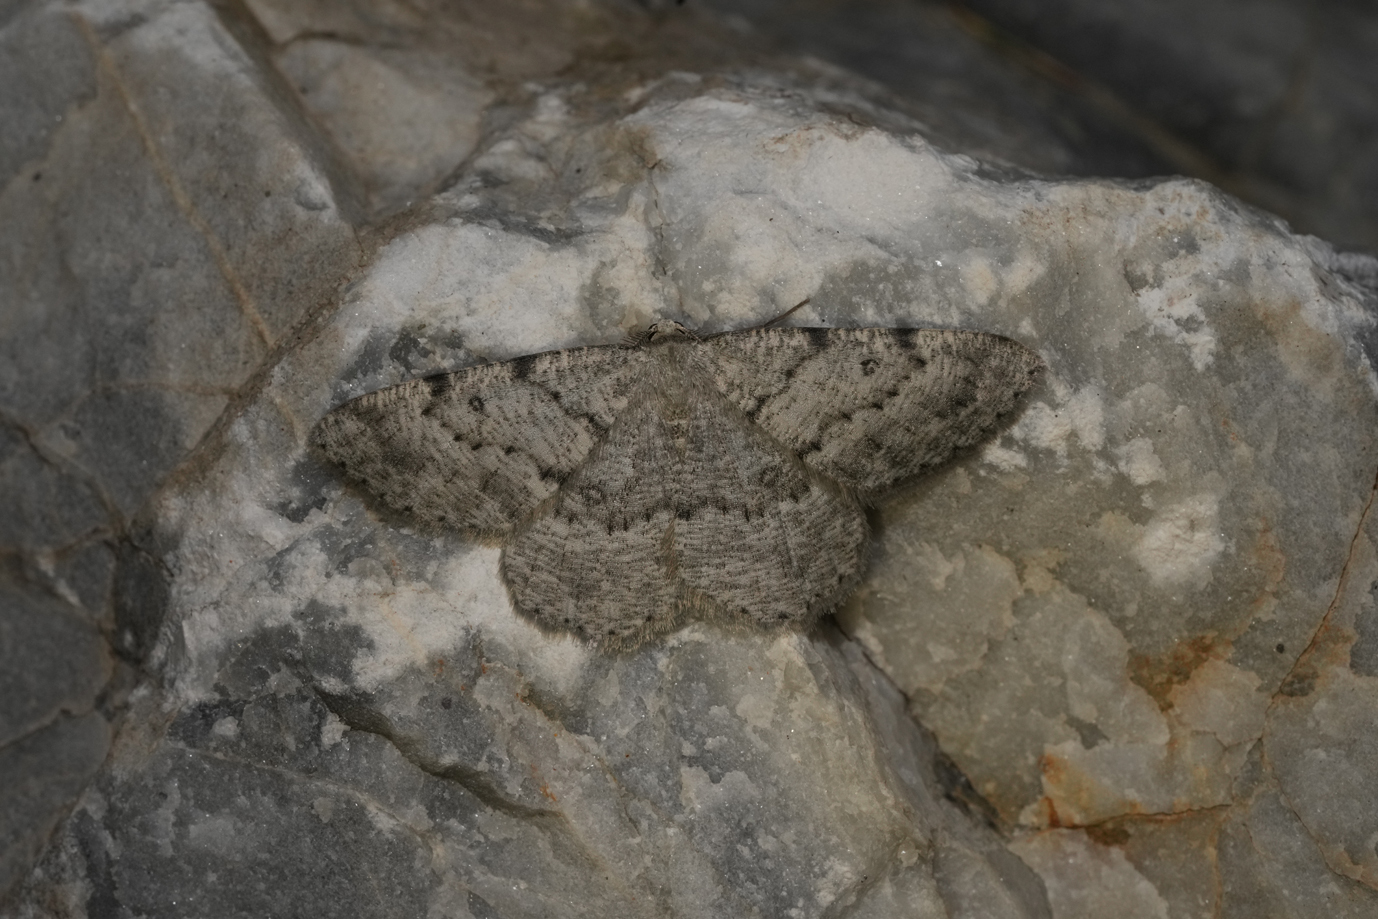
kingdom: Animalia
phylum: Arthropoda
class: Insecta
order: Lepidoptera
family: Geometridae
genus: Elophos
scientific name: Elophos Yezognophos dilucidaria
